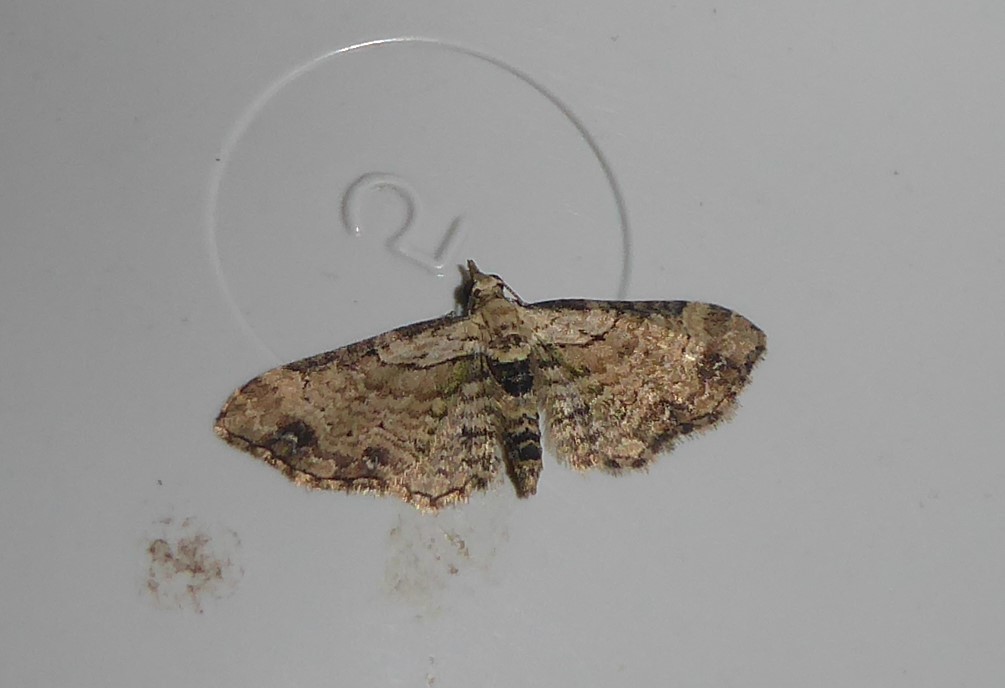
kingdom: Animalia
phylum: Arthropoda
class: Insecta
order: Lepidoptera
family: Geometridae
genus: Chloroclystis
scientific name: Chloroclystis
